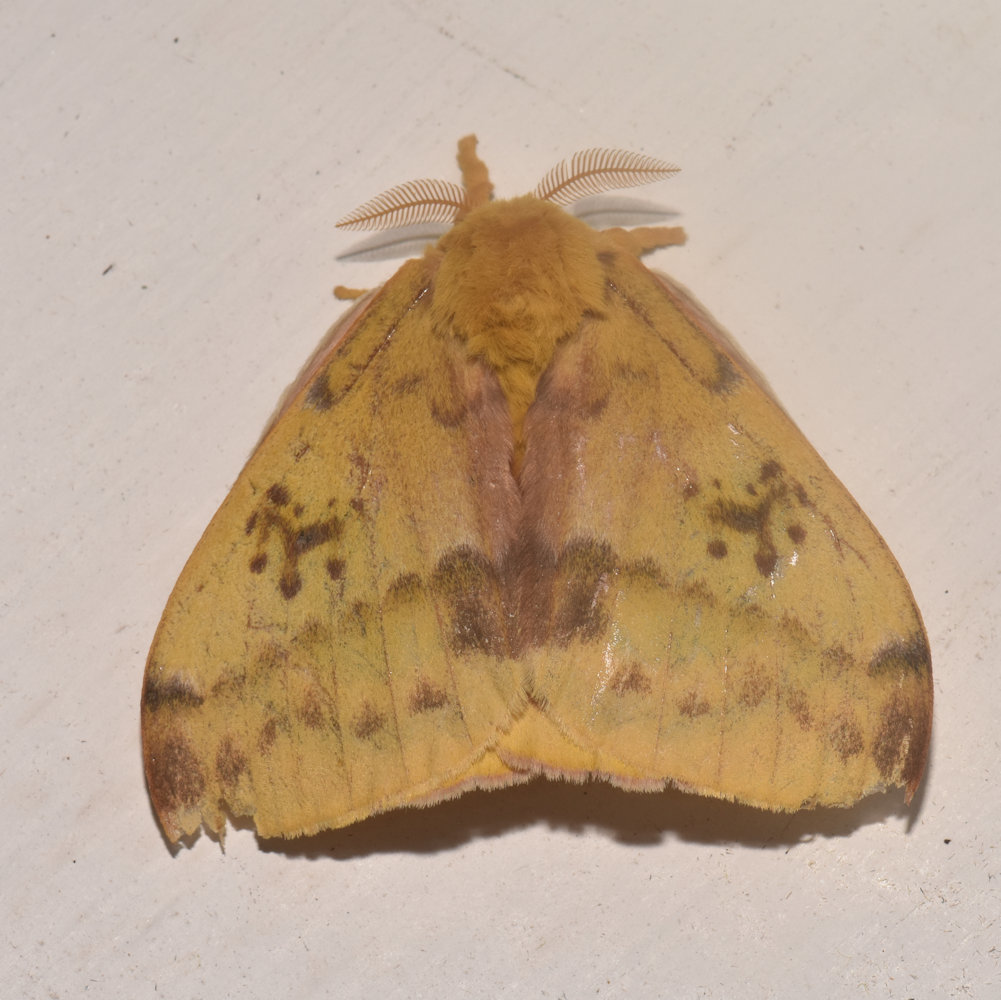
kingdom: Animalia
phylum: Arthropoda
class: Insecta
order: Lepidoptera
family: Saturniidae
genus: Automeris
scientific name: Automeris io
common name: Io moth
